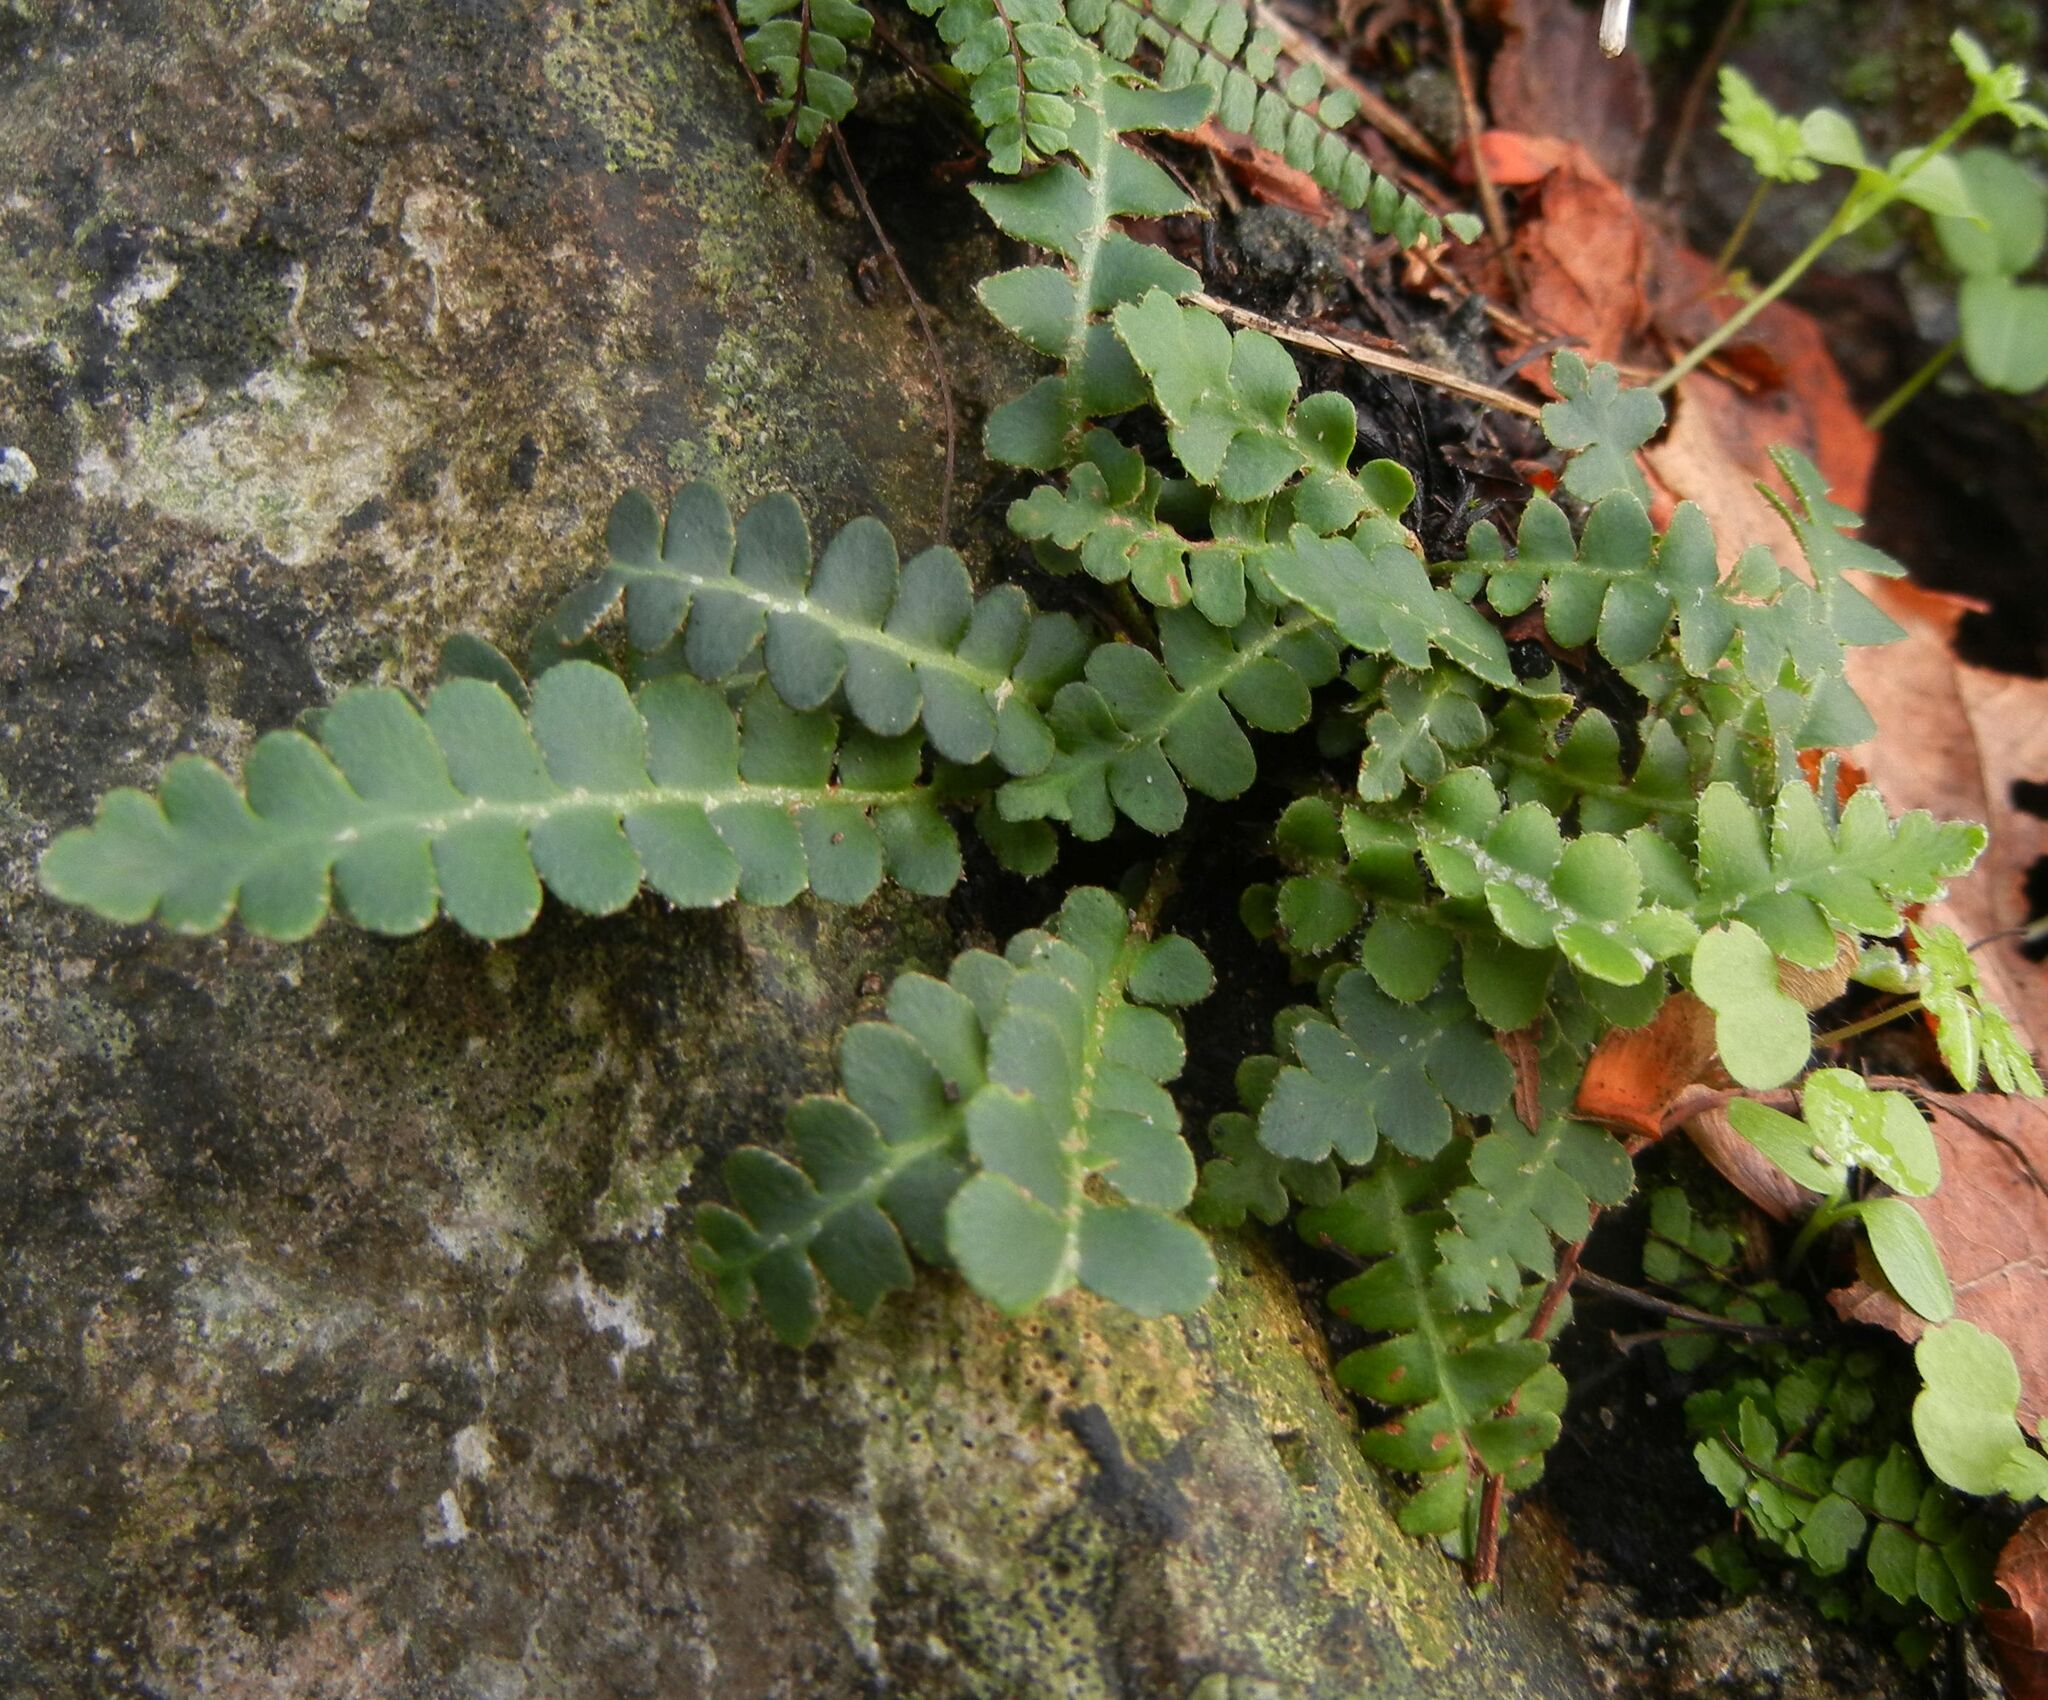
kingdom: Plantae
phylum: Tracheophyta
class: Polypodiopsida
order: Polypodiales
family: Aspleniaceae
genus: Asplenium
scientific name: Asplenium ceterach
